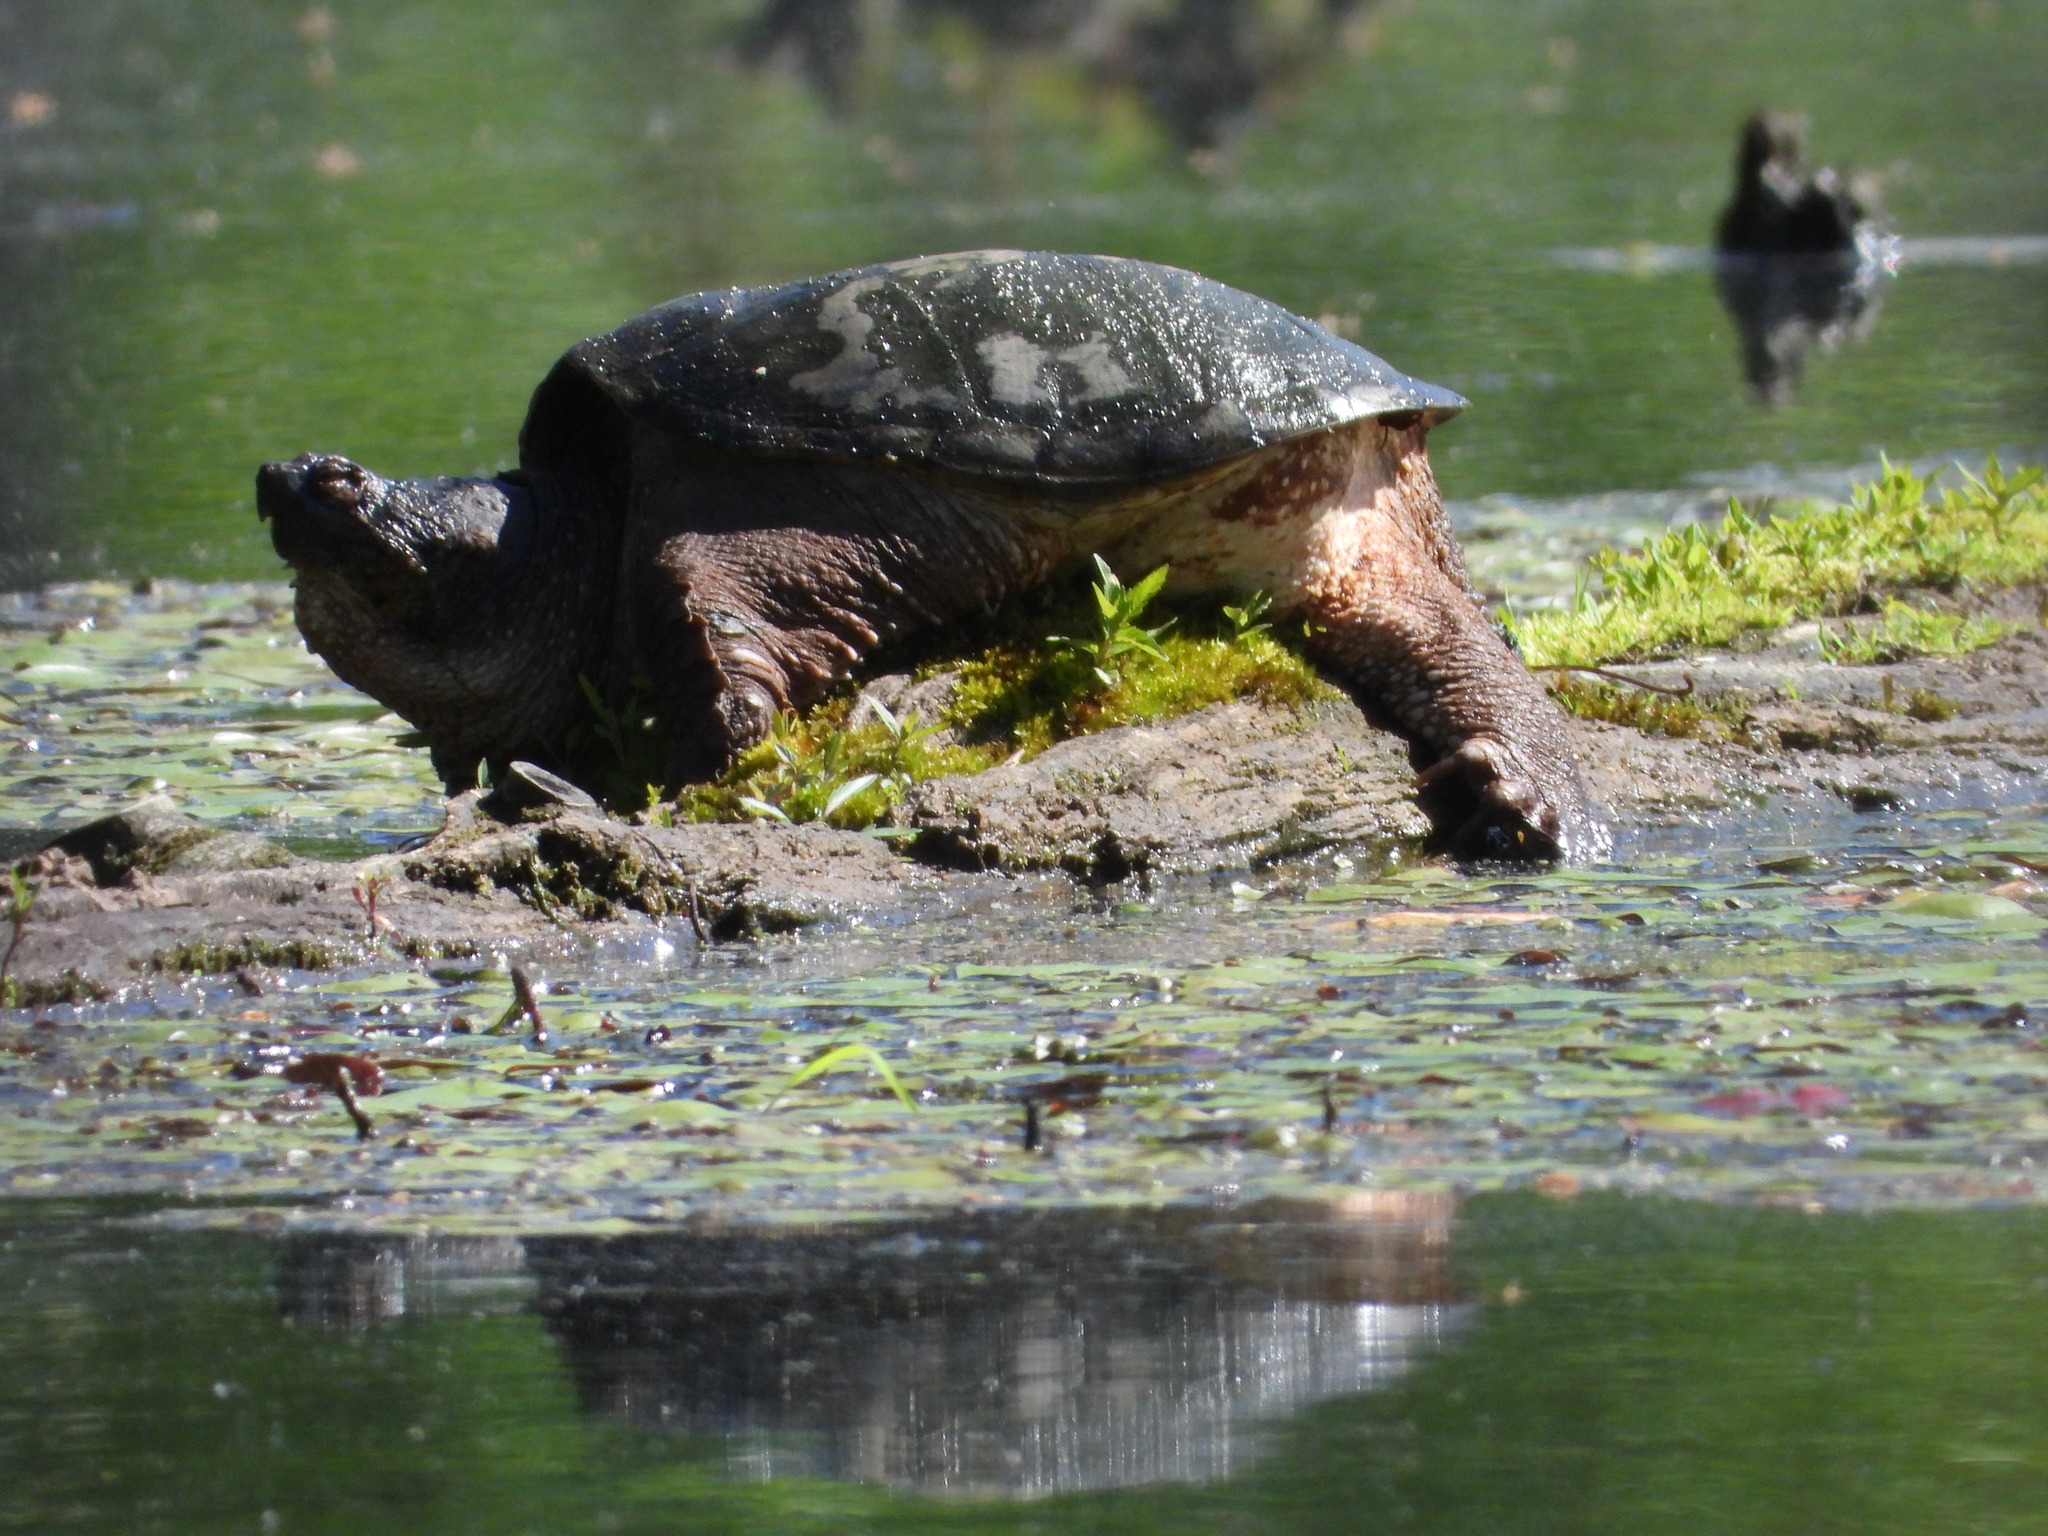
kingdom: Animalia
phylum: Chordata
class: Testudines
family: Chelydridae
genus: Chelydra
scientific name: Chelydra serpentina
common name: Common snapping turtle
